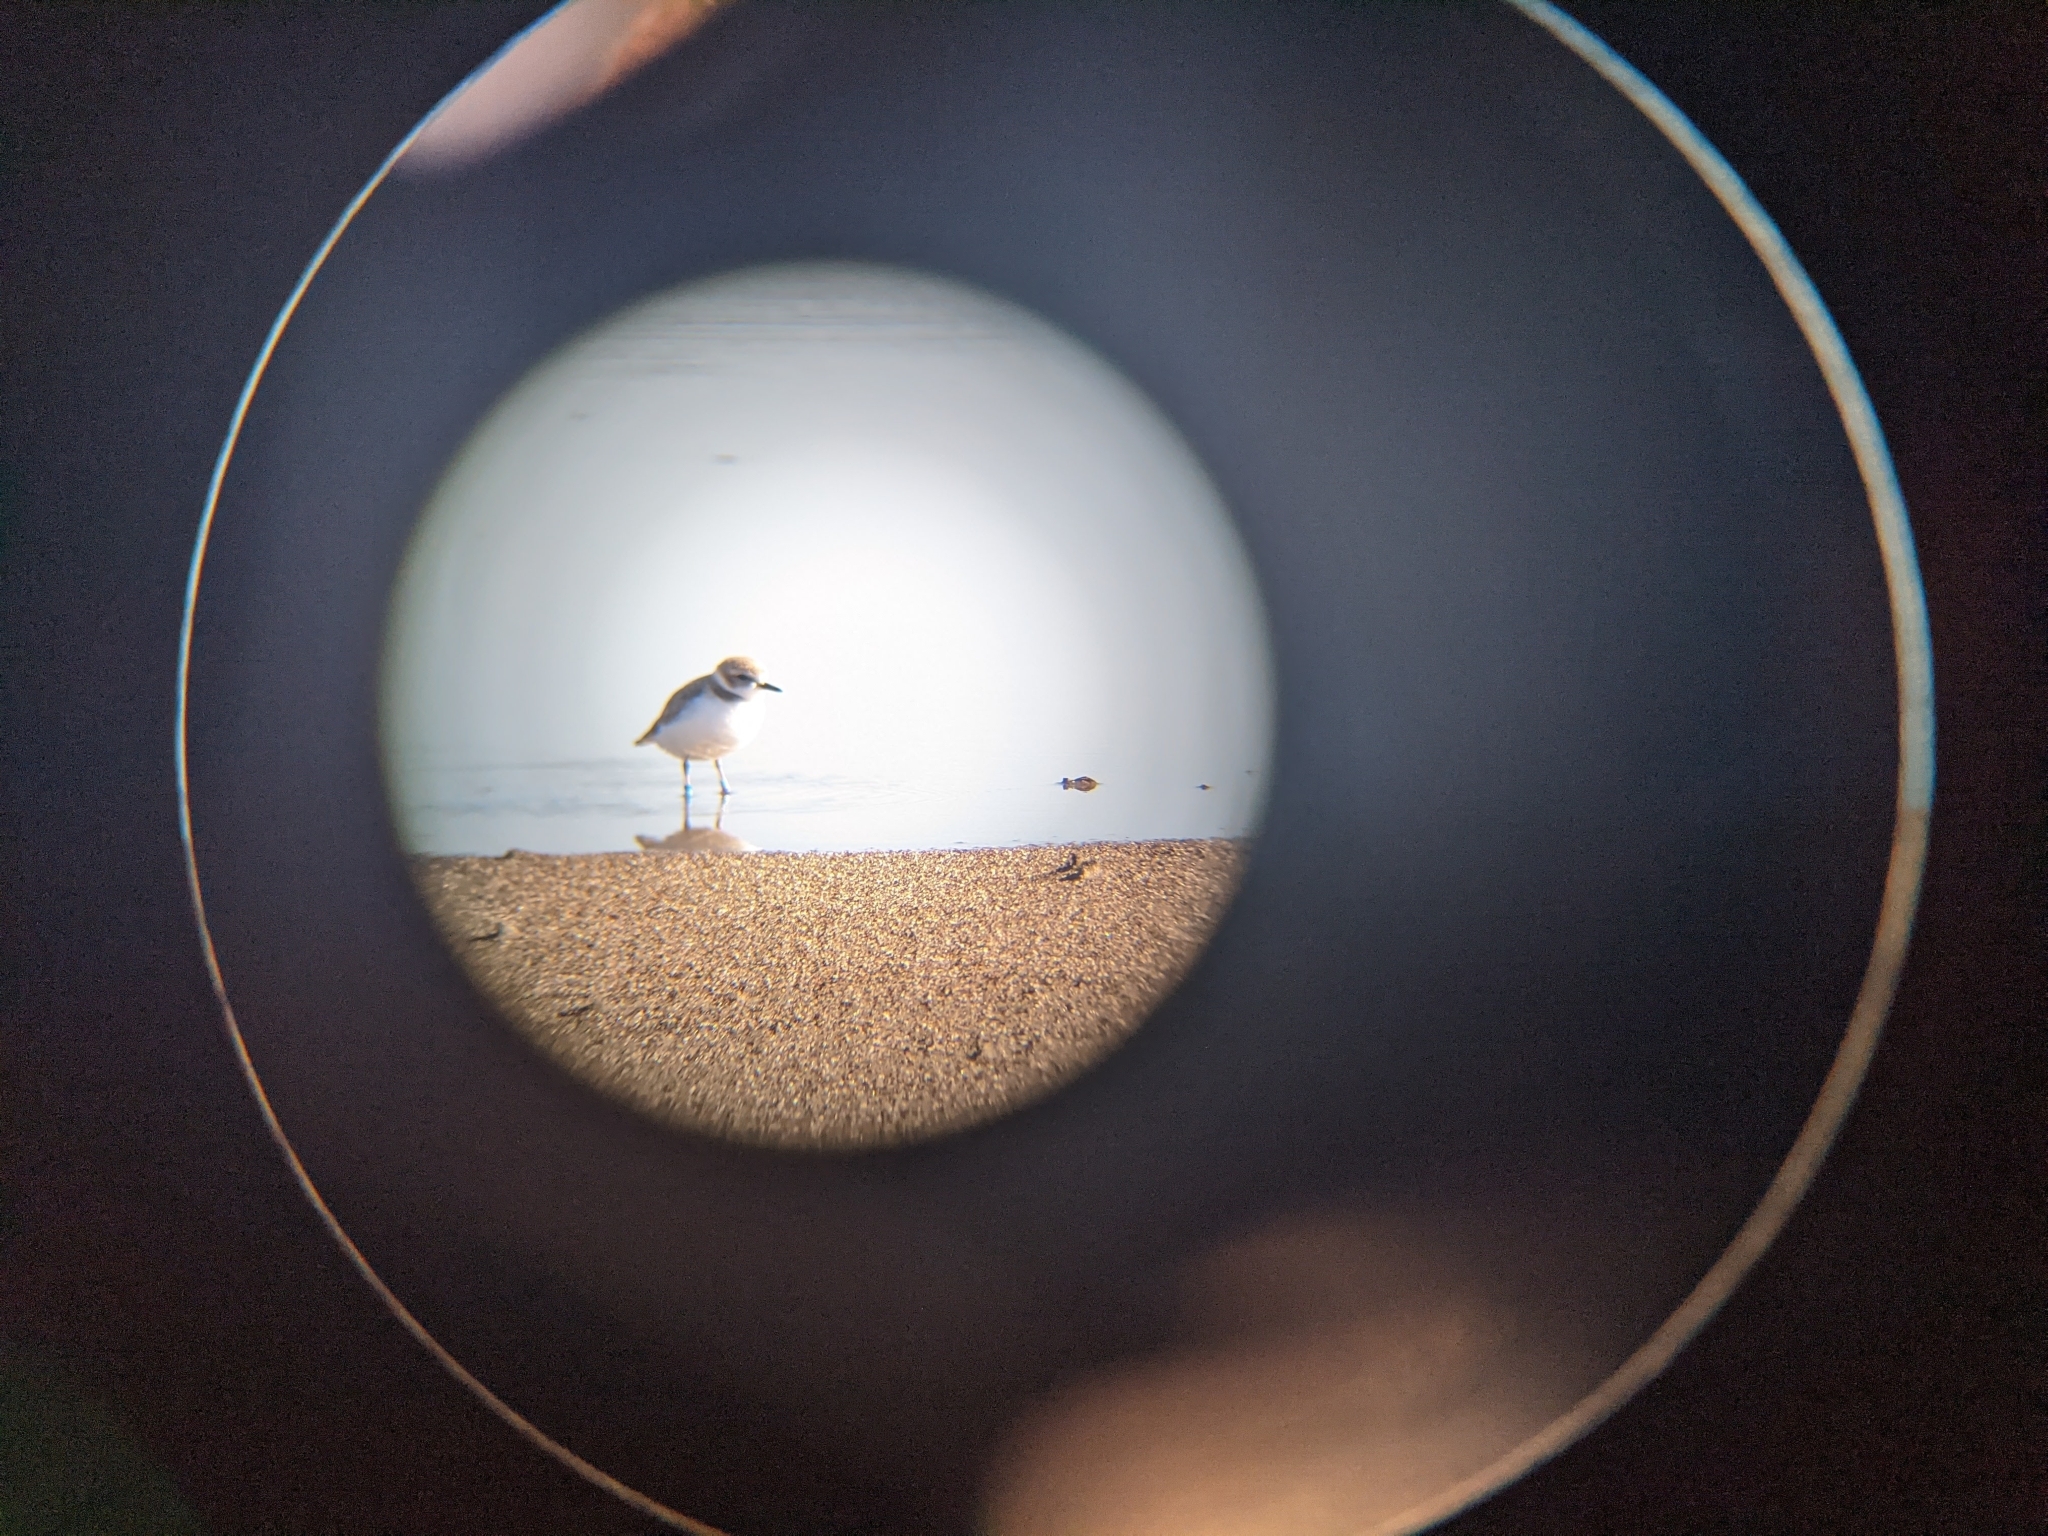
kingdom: Animalia
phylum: Chordata
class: Aves
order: Charadriiformes
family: Charadriidae
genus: Anarhynchus
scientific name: Anarhynchus
